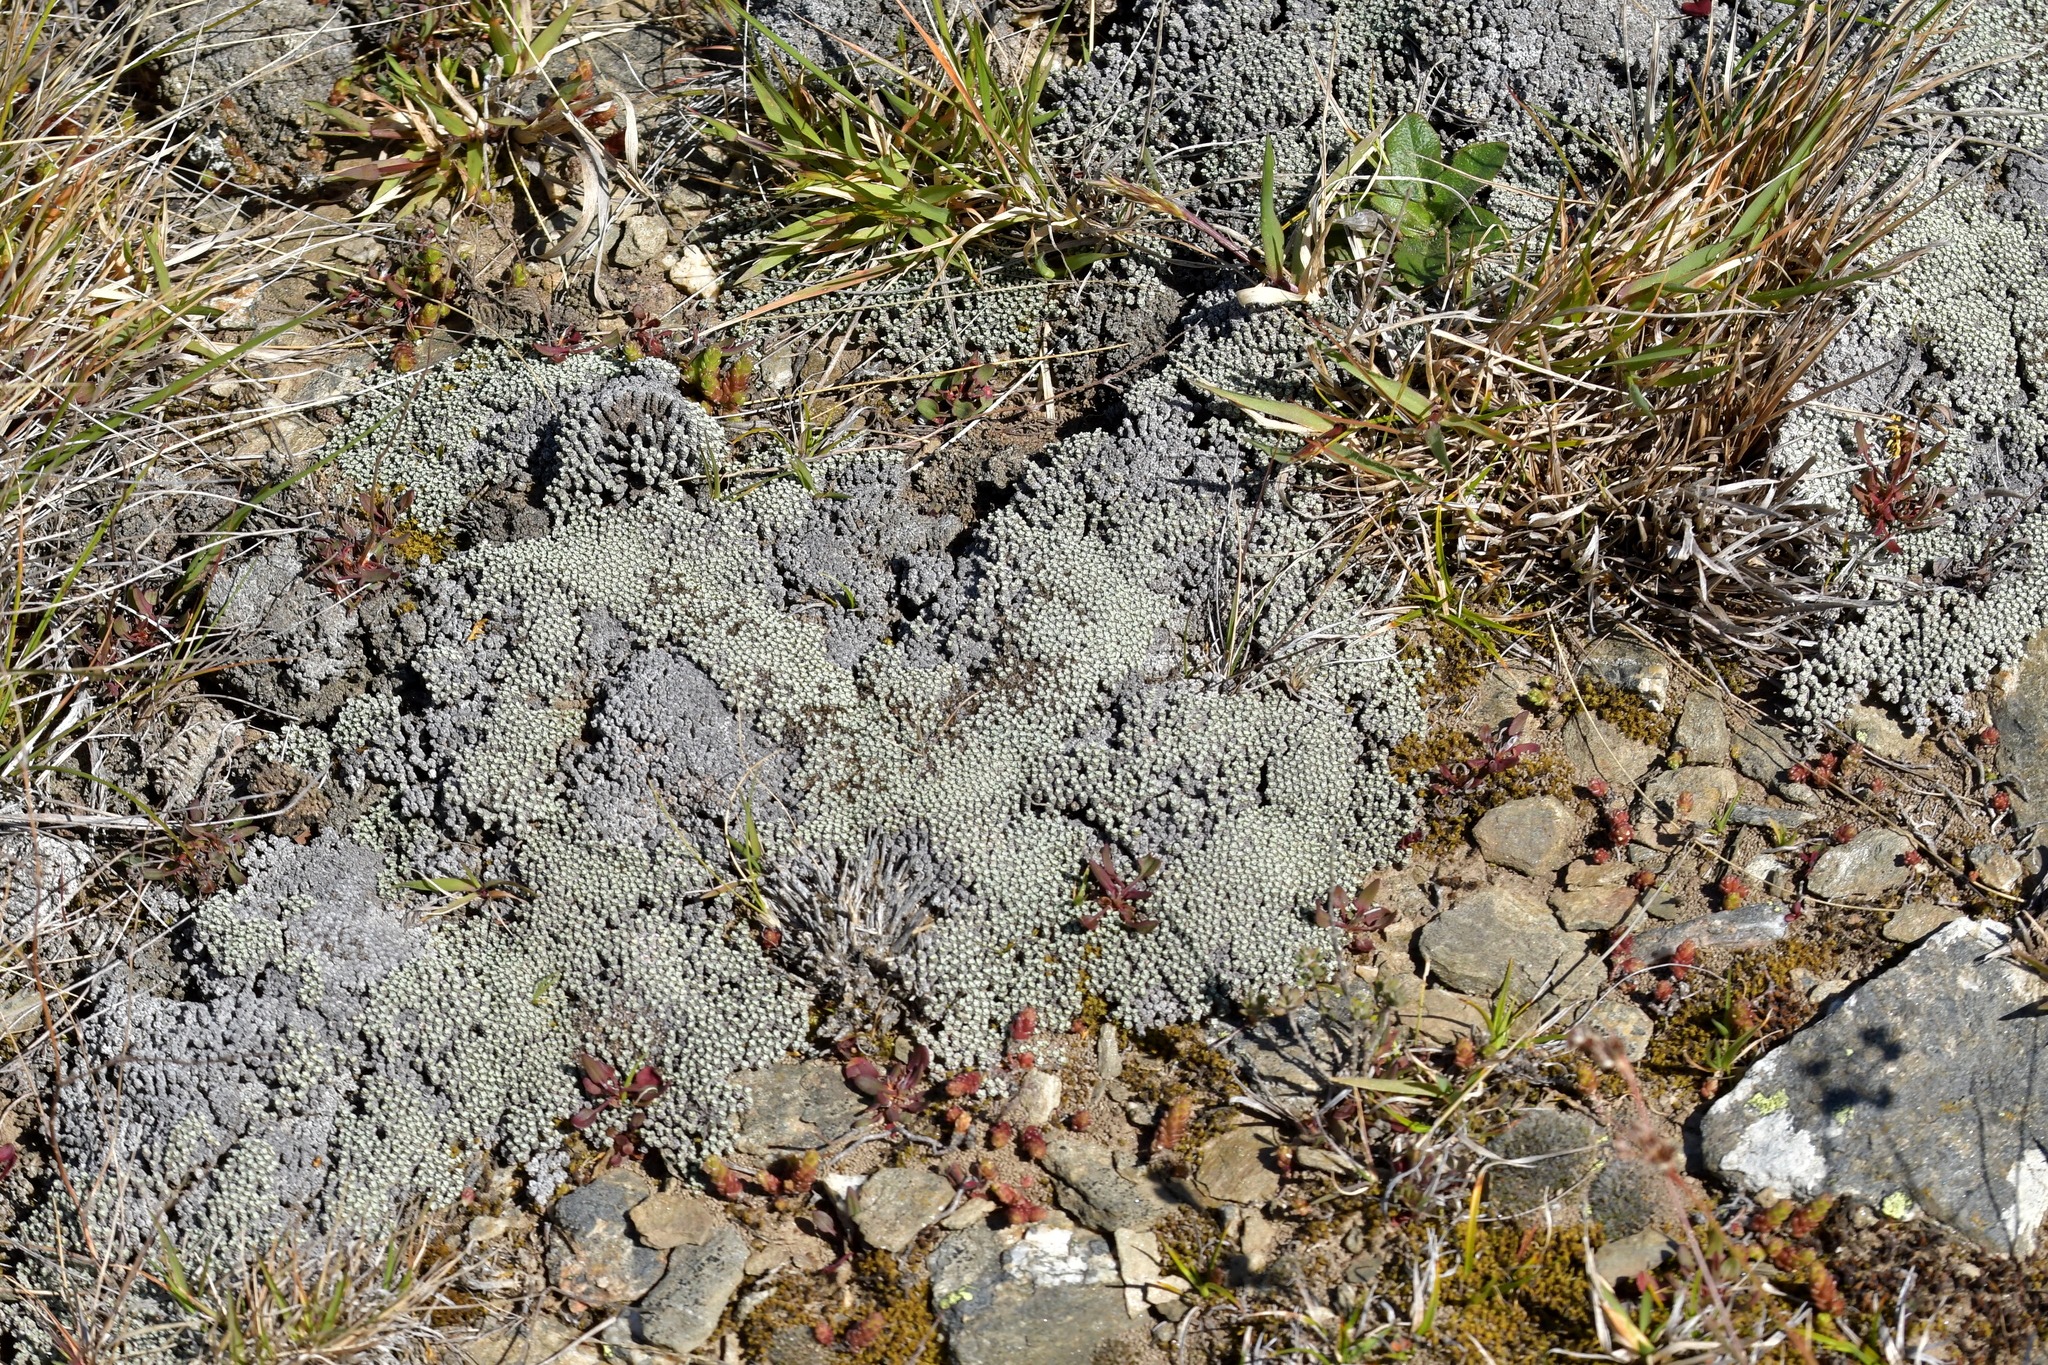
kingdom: Plantae
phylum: Tracheophyta
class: Magnoliopsida
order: Asterales
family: Asteraceae
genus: Raoulia
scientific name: Raoulia australis
